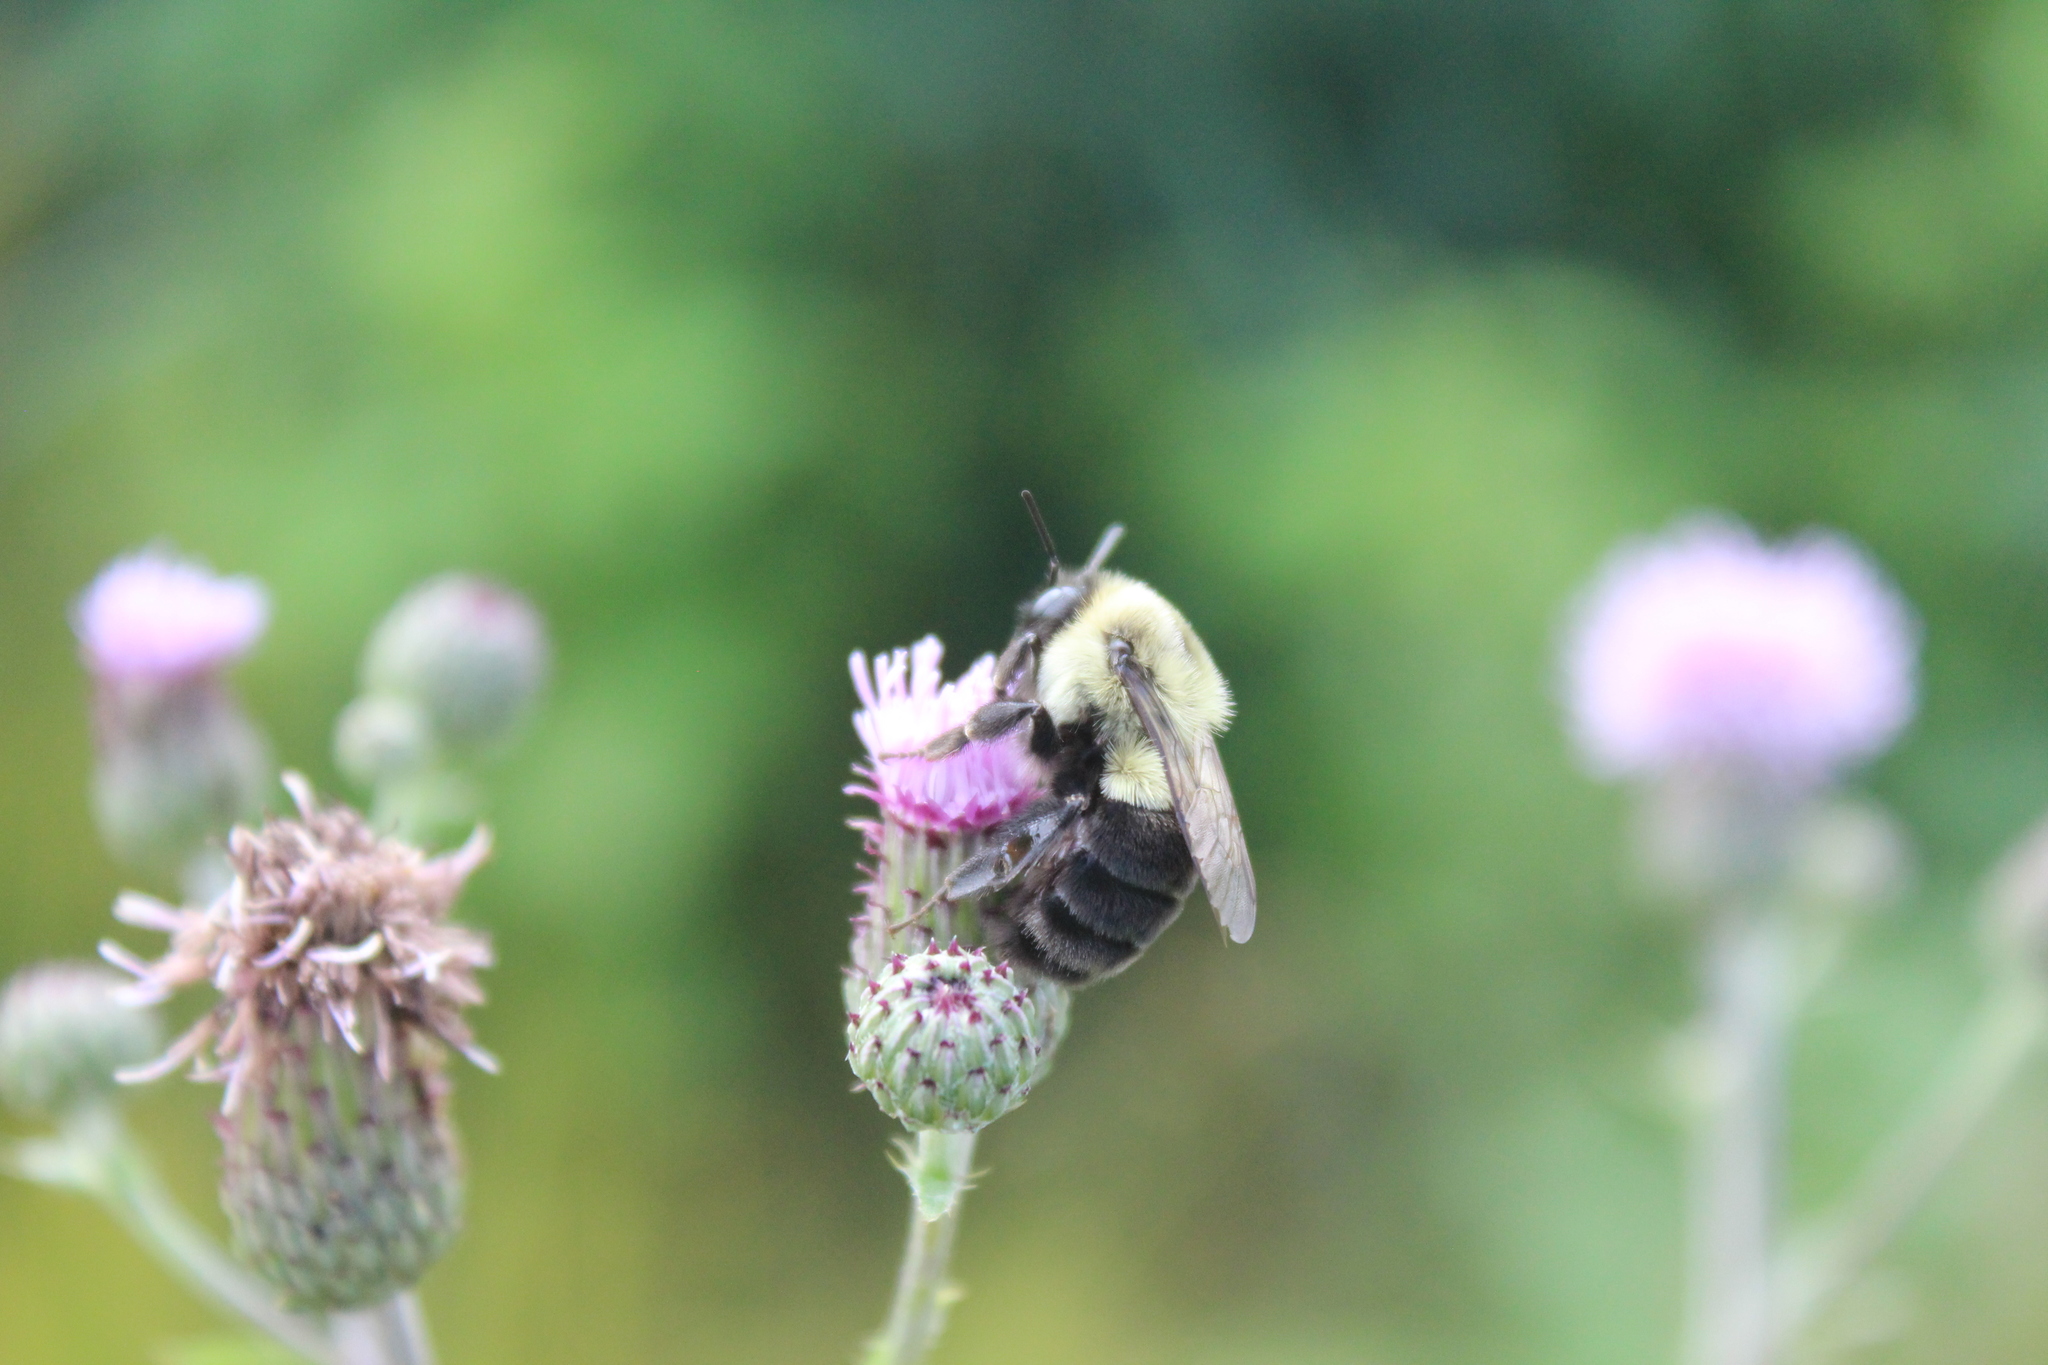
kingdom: Animalia
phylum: Arthropoda
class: Insecta
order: Hymenoptera
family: Apidae
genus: Bombus
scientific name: Bombus impatiens
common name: Common eastern bumble bee
